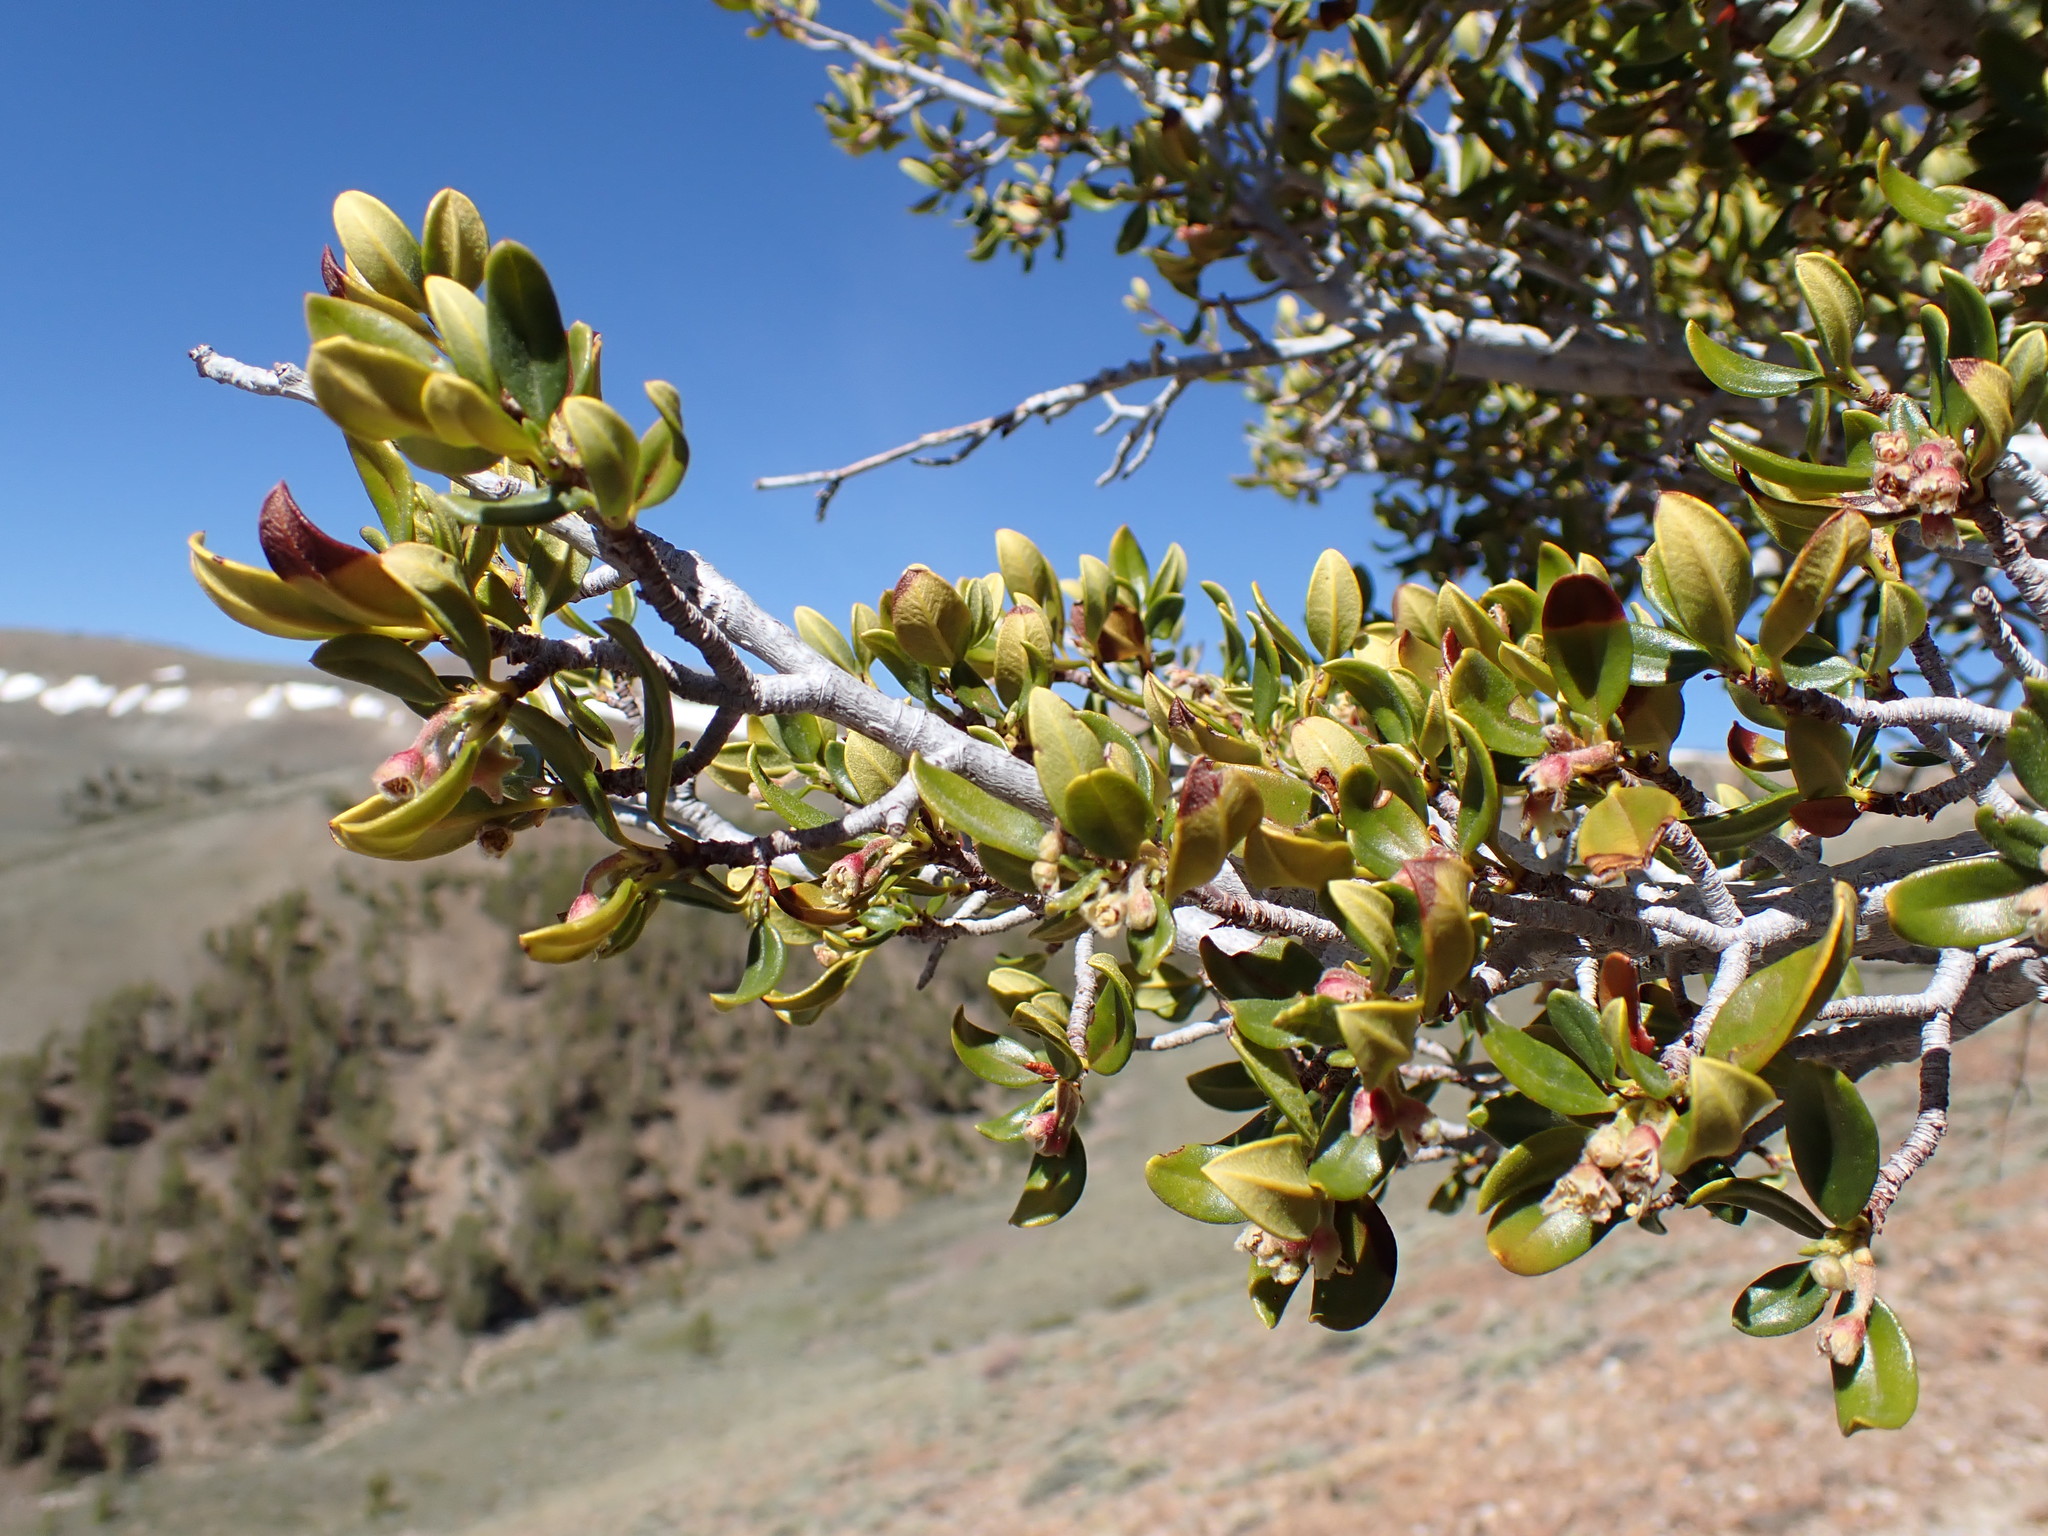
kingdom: Plantae
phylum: Tracheophyta
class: Magnoliopsida
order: Rosales
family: Rosaceae
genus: Cercocarpus
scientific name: Cercocarpus ledifolius
